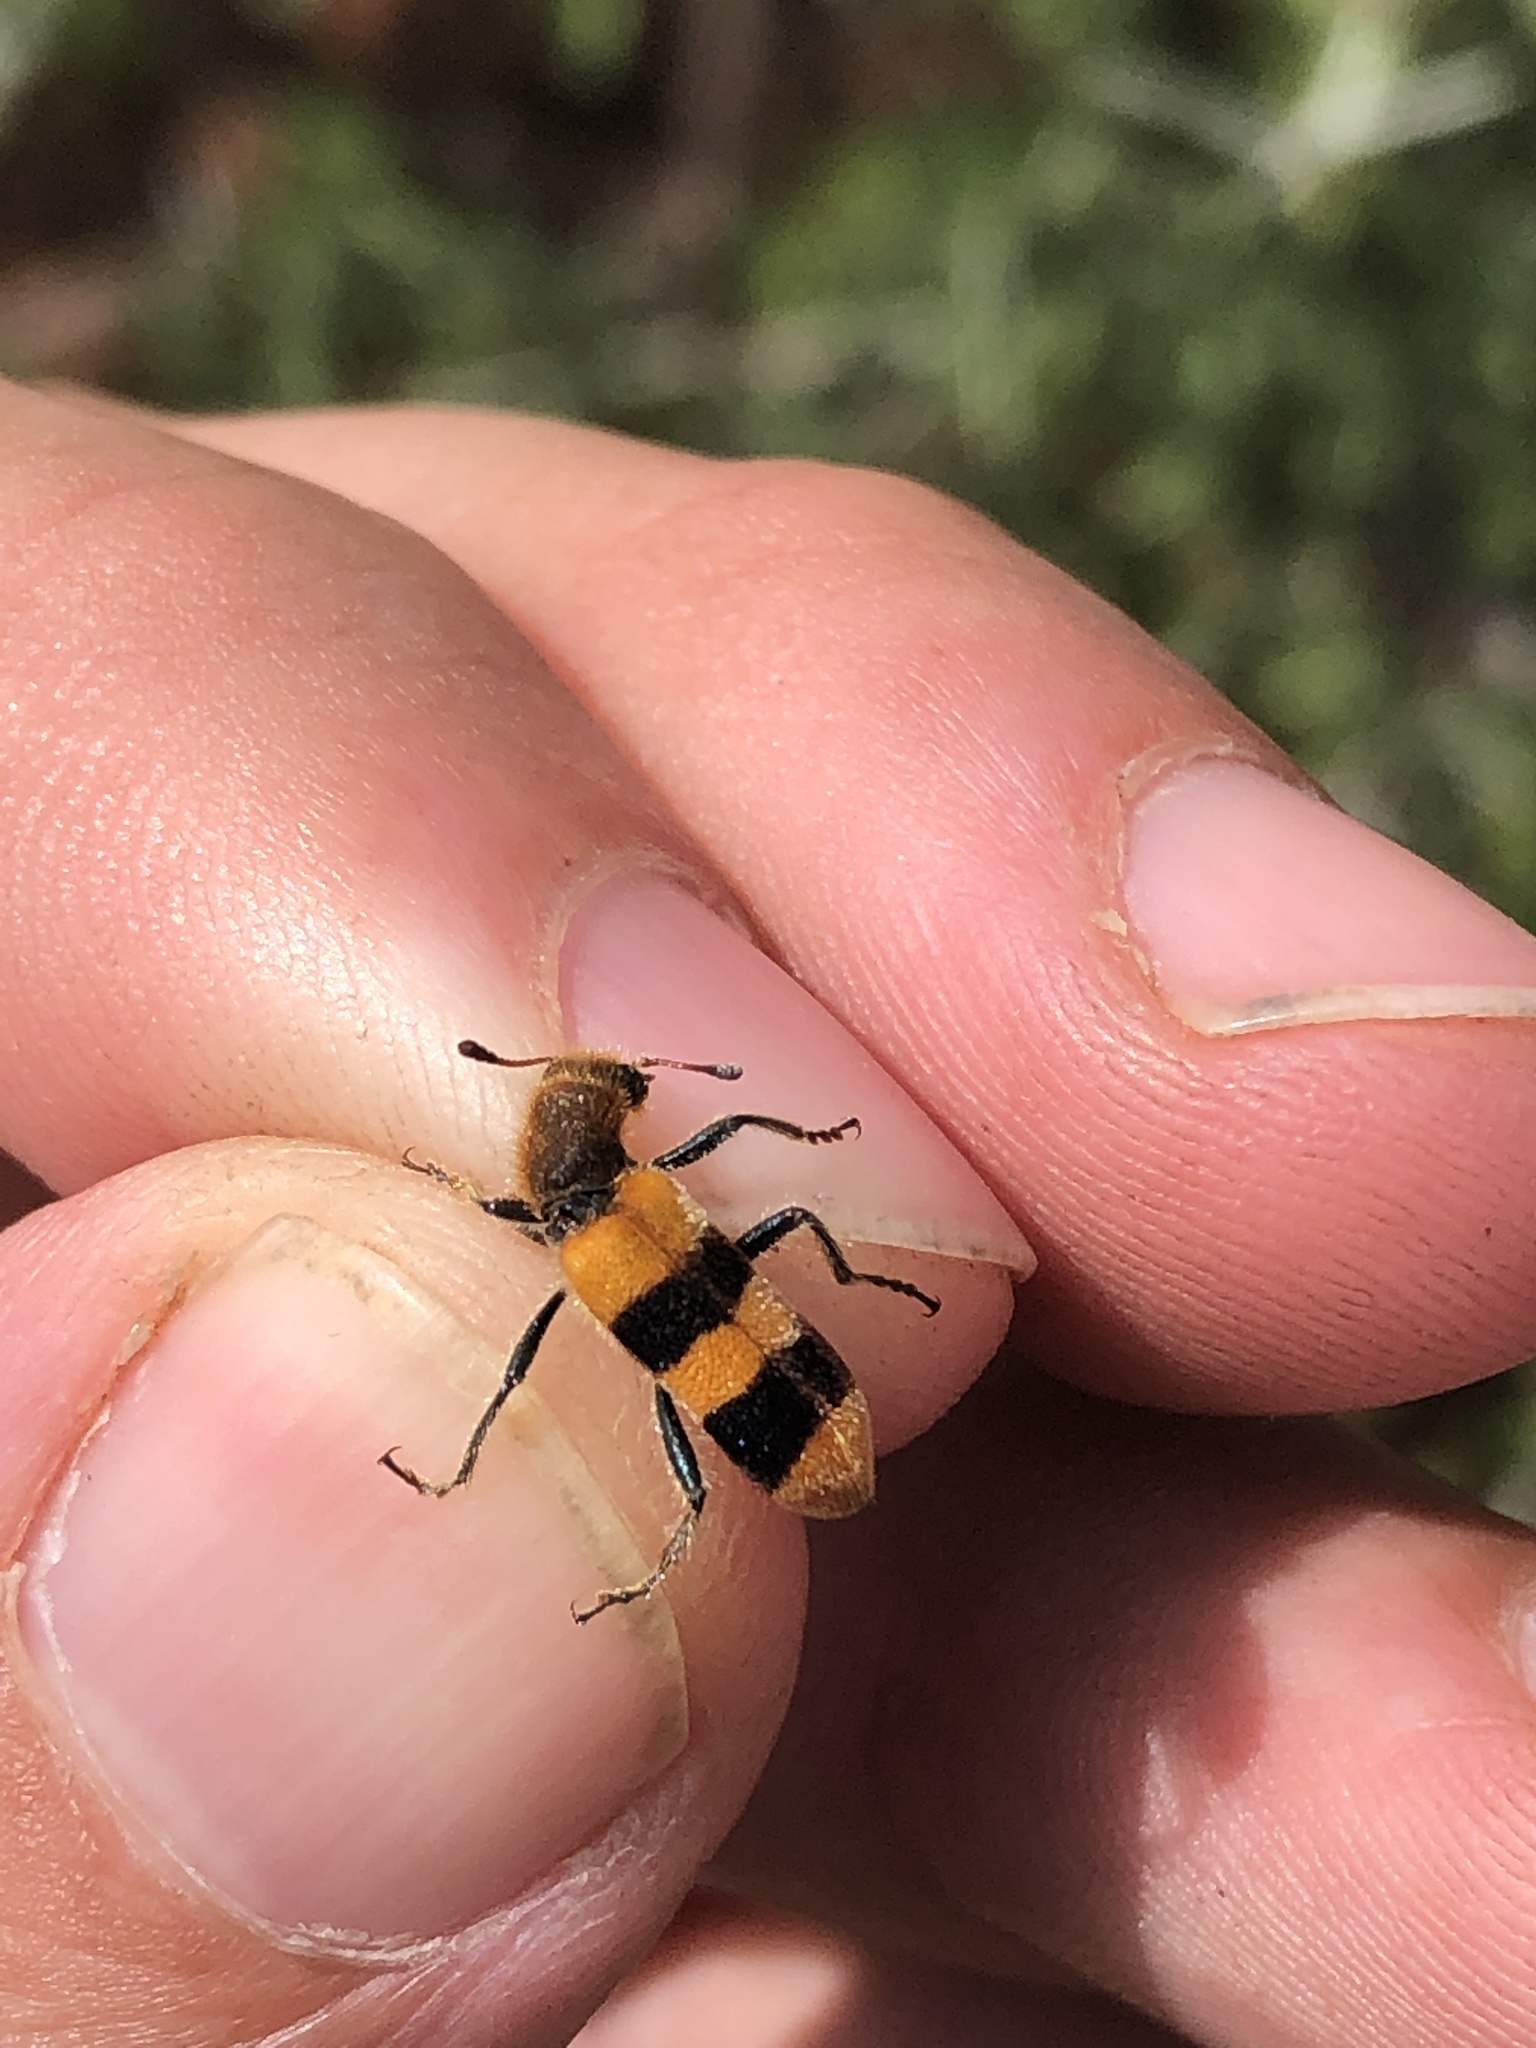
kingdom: Animalia
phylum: Arthropoda
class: Insecta
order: Coleoptera
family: Cleridae
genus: Trichodes
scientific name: Trichodes bibalteatus
